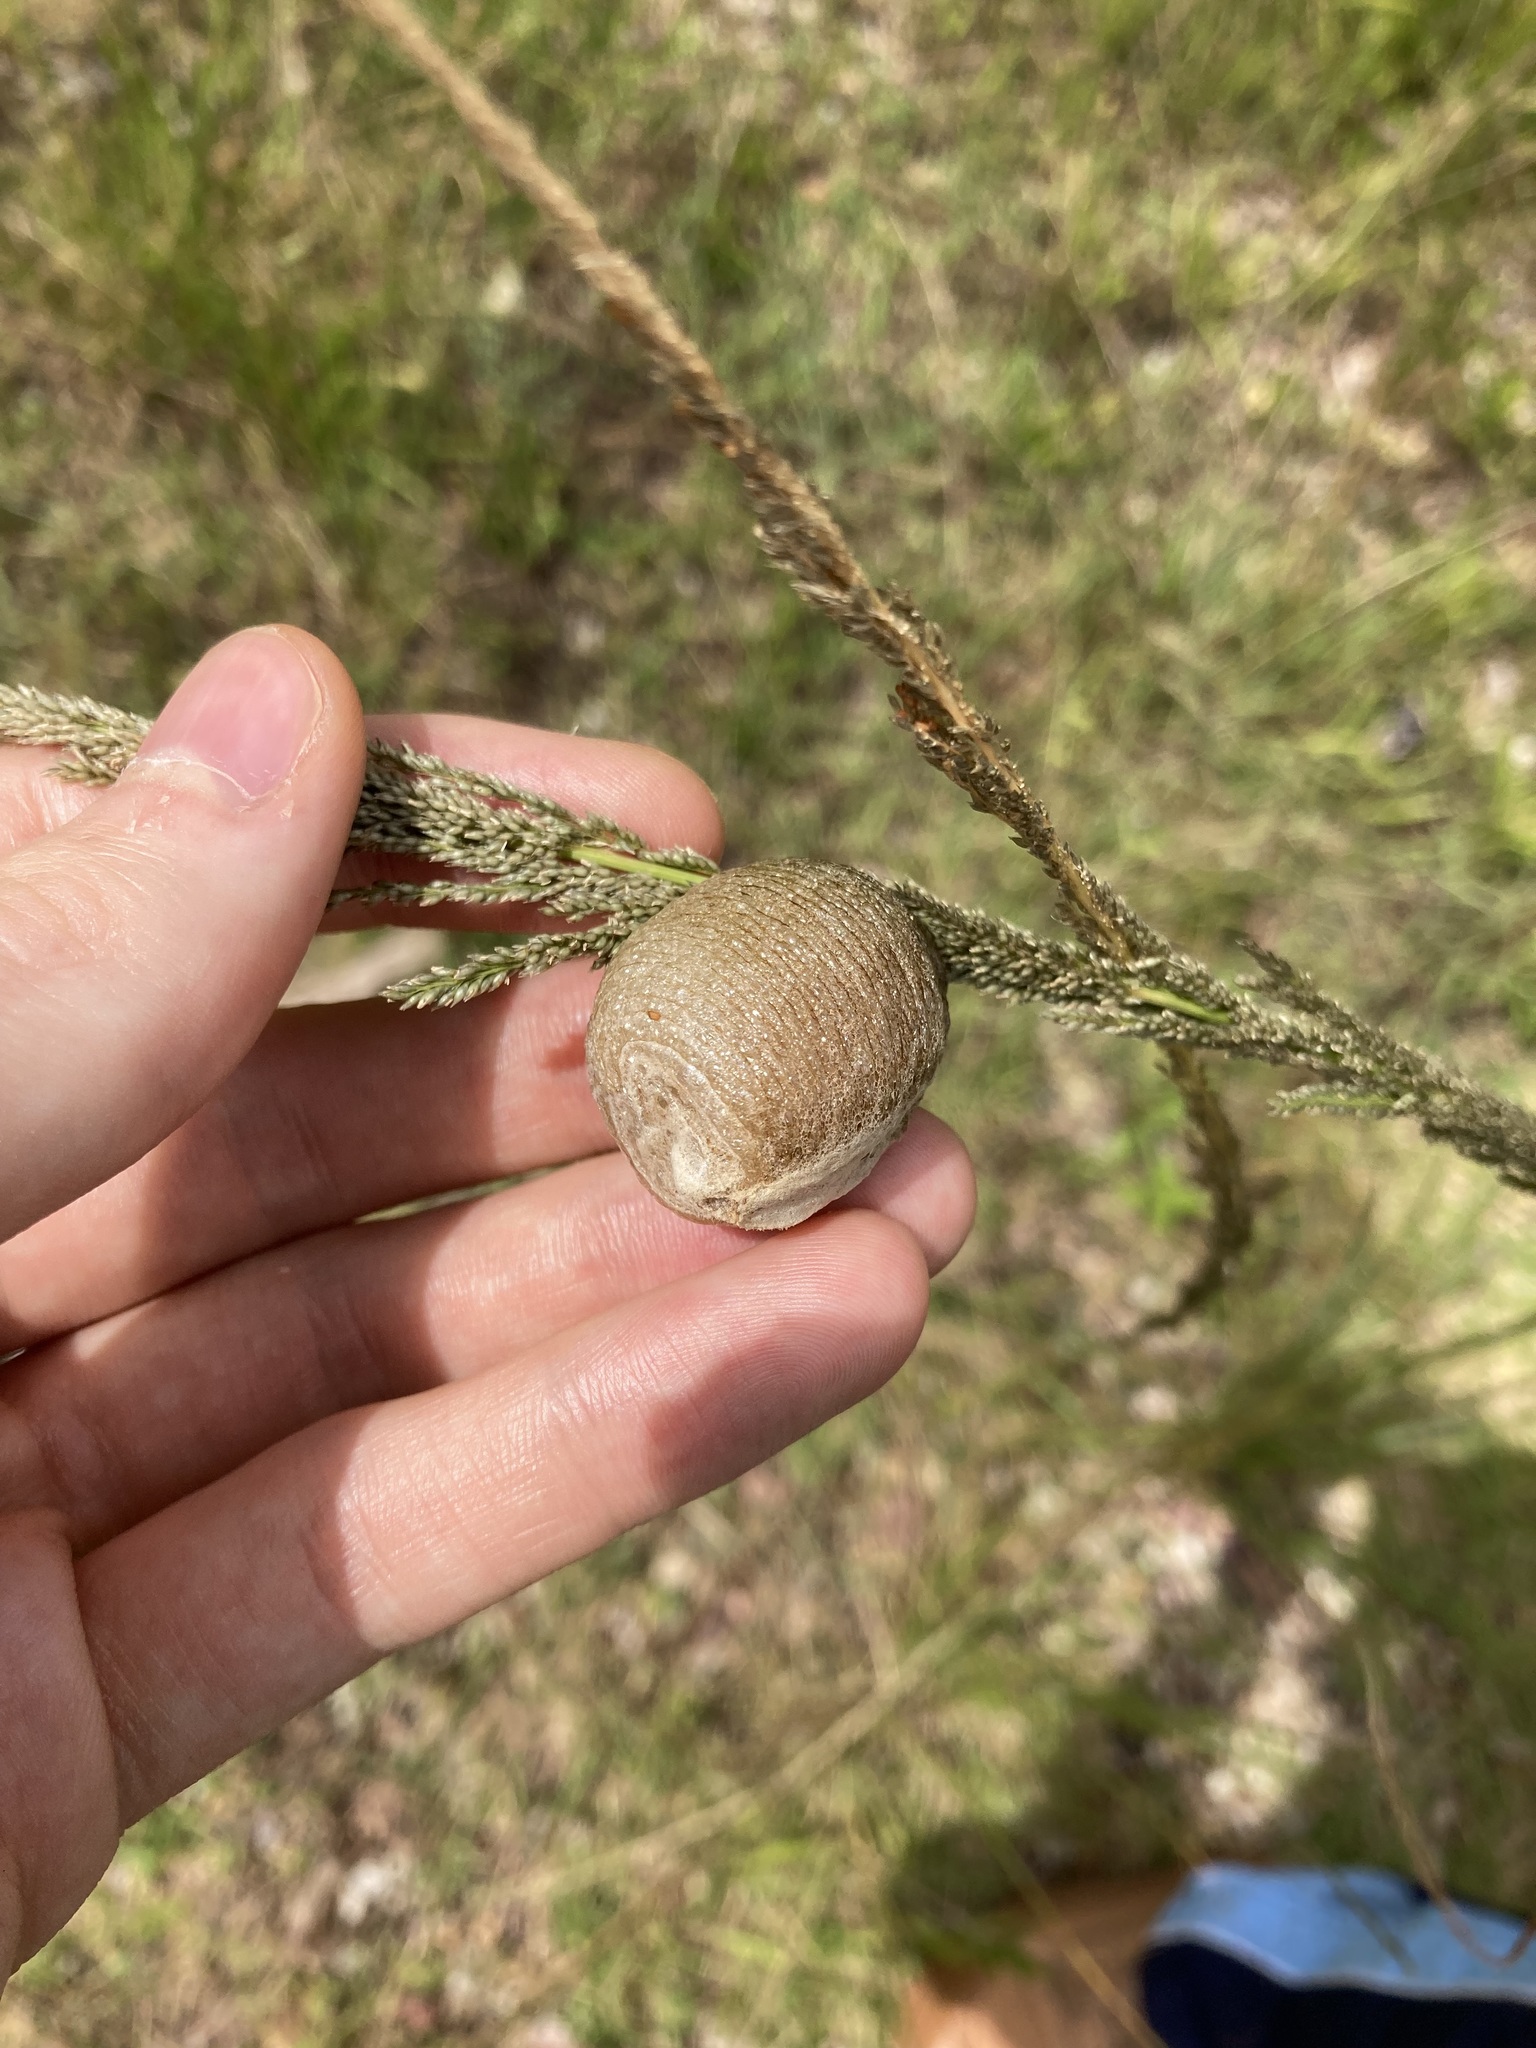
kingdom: Animalia
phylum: Arthropoda
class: Insecta
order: Mantodea
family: Mantidae
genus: Archimantis
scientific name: Archimantis latistyla
